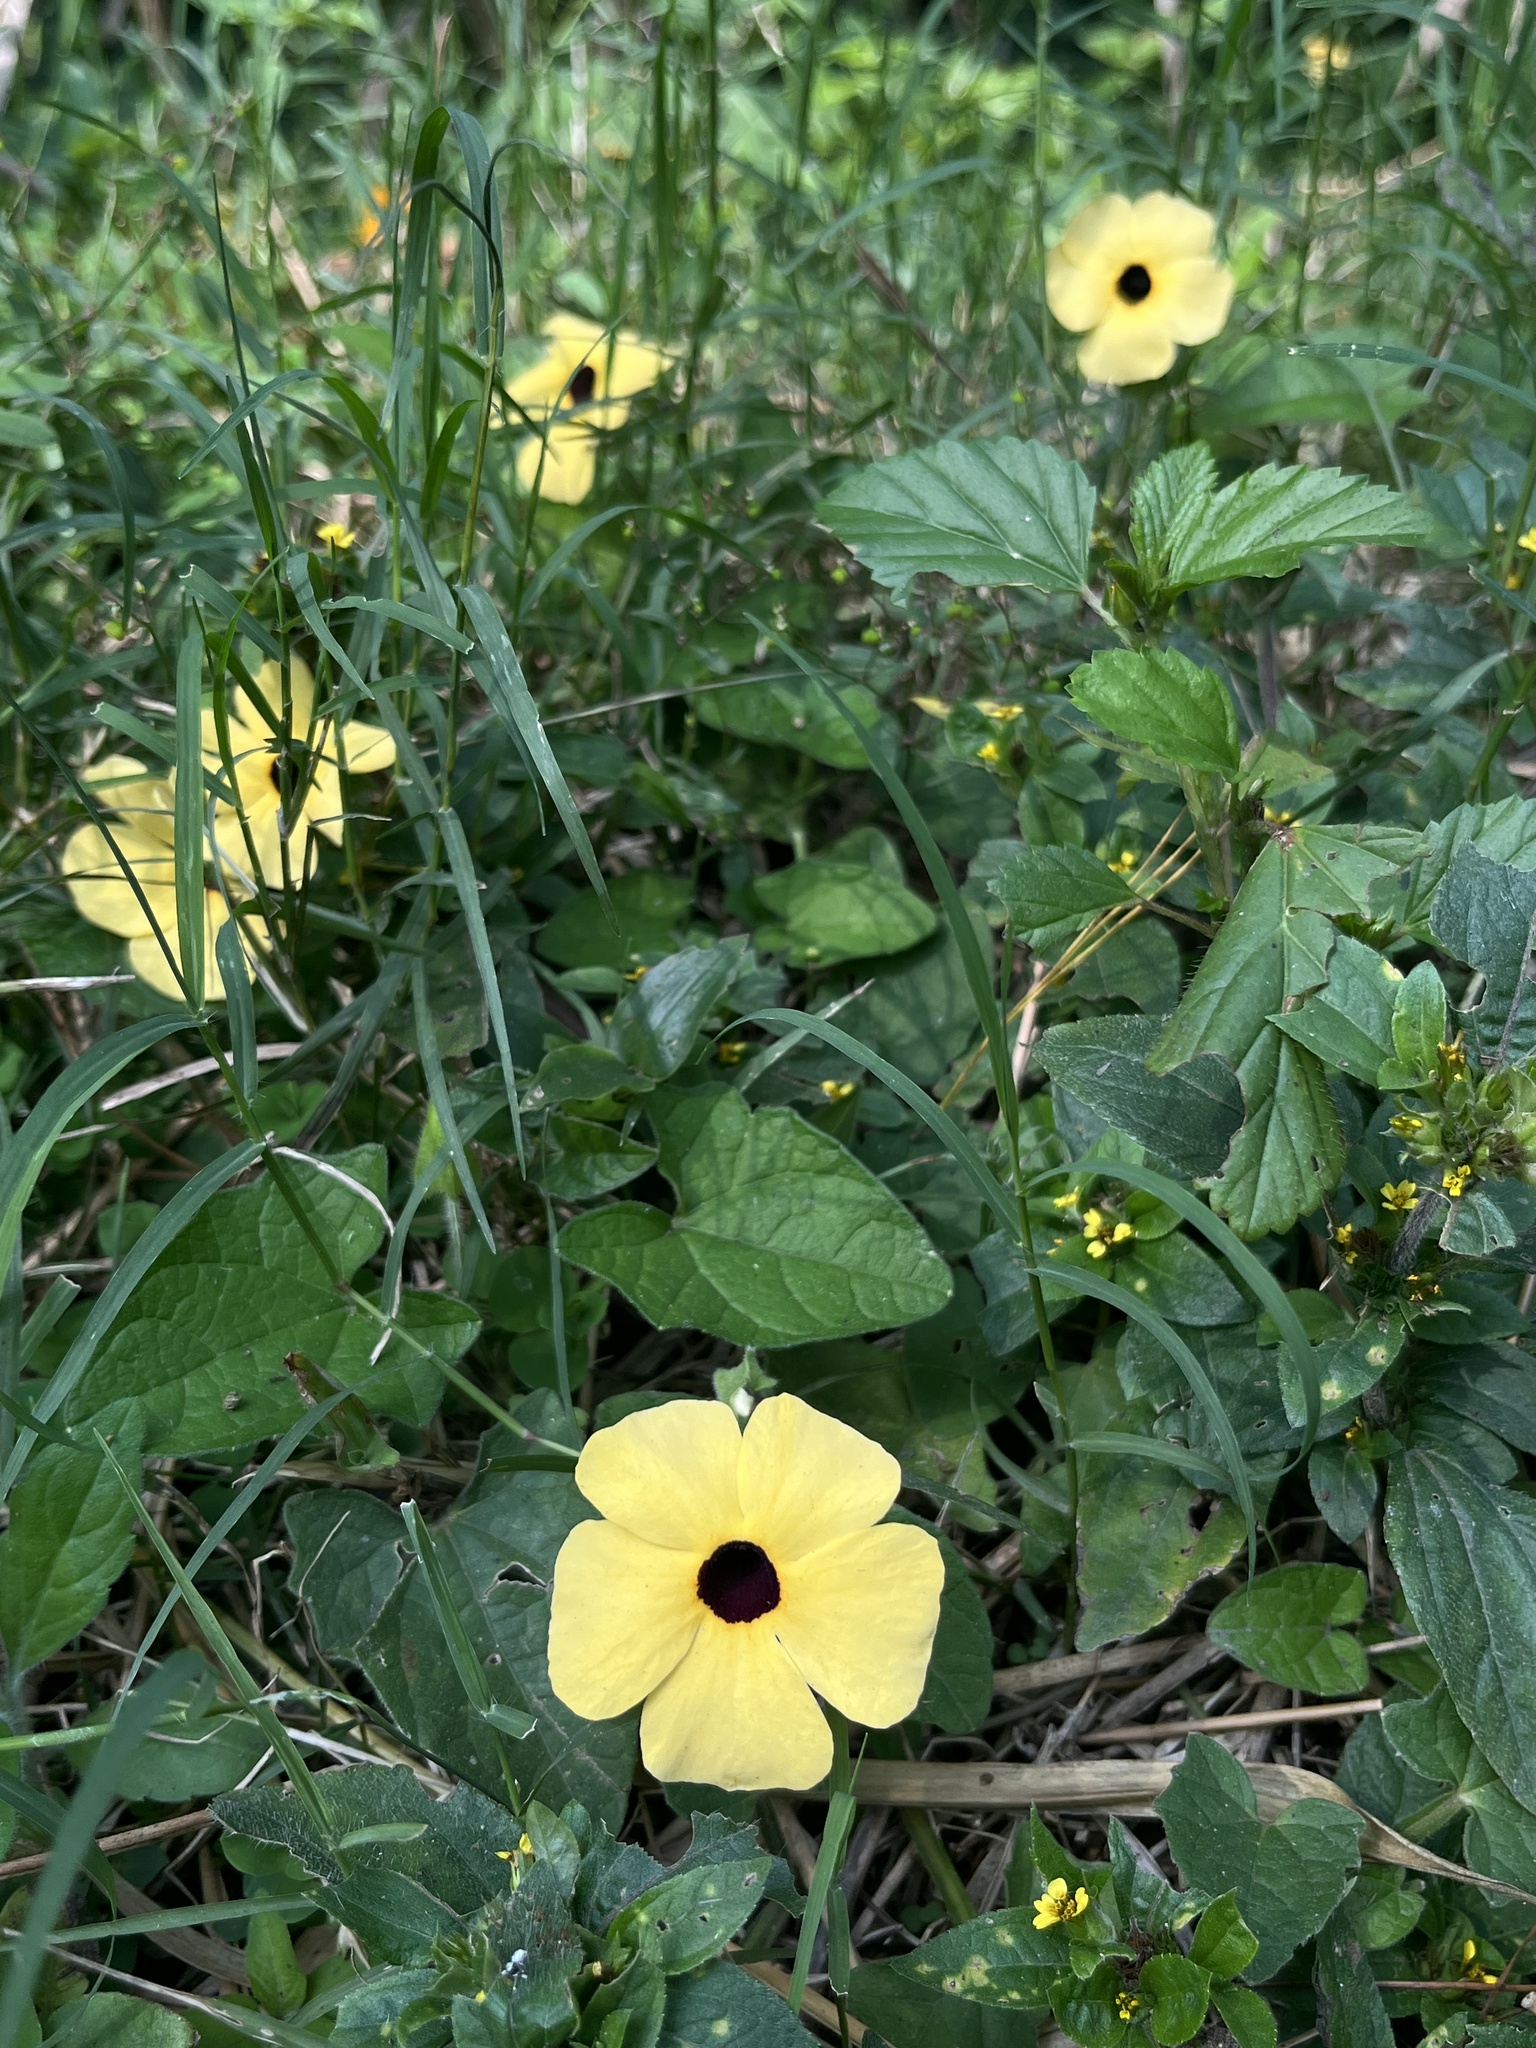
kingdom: Plantae
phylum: Tracheophyta
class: Magnoliopsida
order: Lamiales
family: Acanthaceae
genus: Thunbergia
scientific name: Thunbergia alata
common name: Blackeyed susan vine
